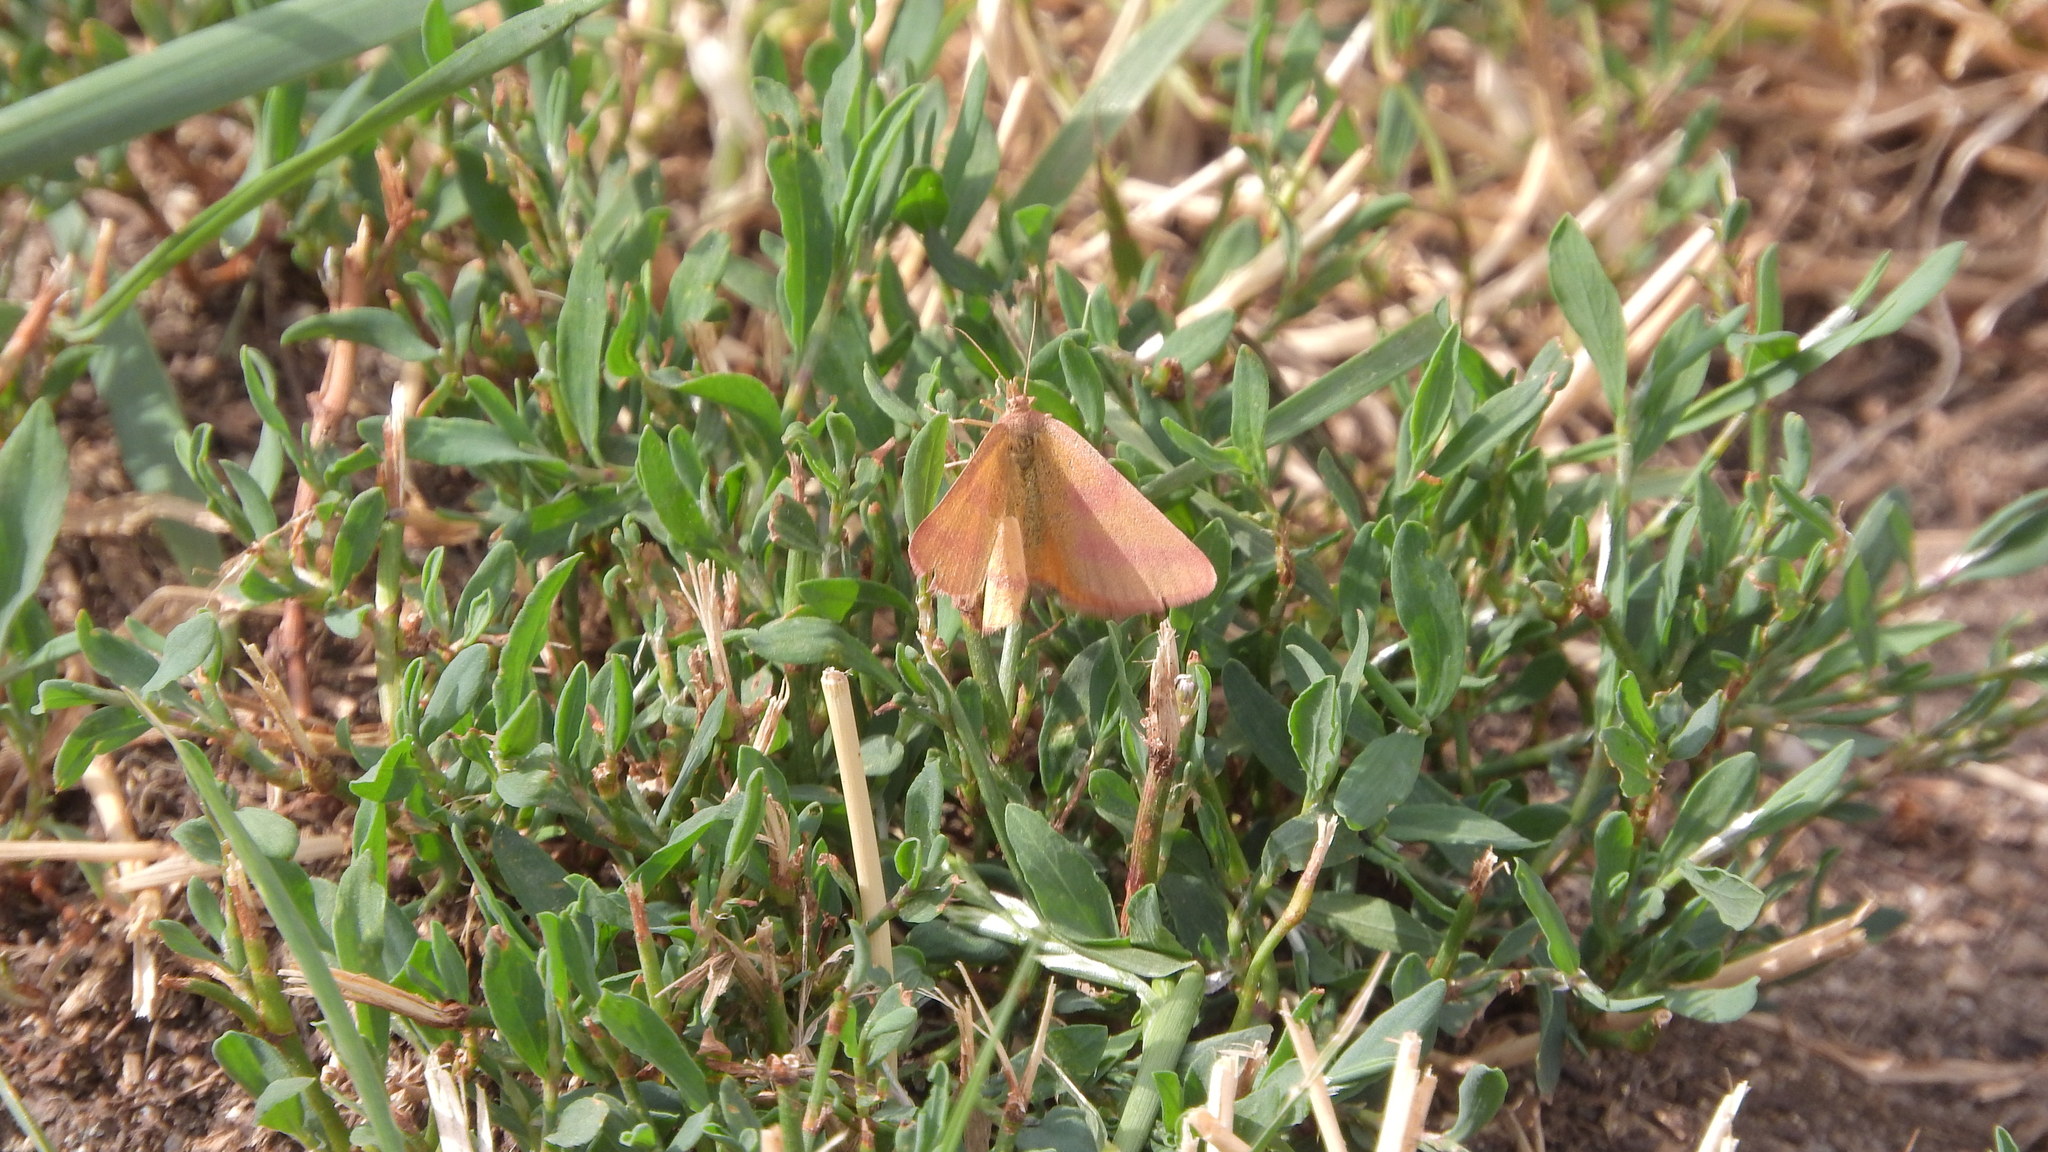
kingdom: Animalia
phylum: Arthropoda
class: Insecta
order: Lepidoptera
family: Geometridae
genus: Lythria
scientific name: Lythria purpuraria
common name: Purple-barred yellow
